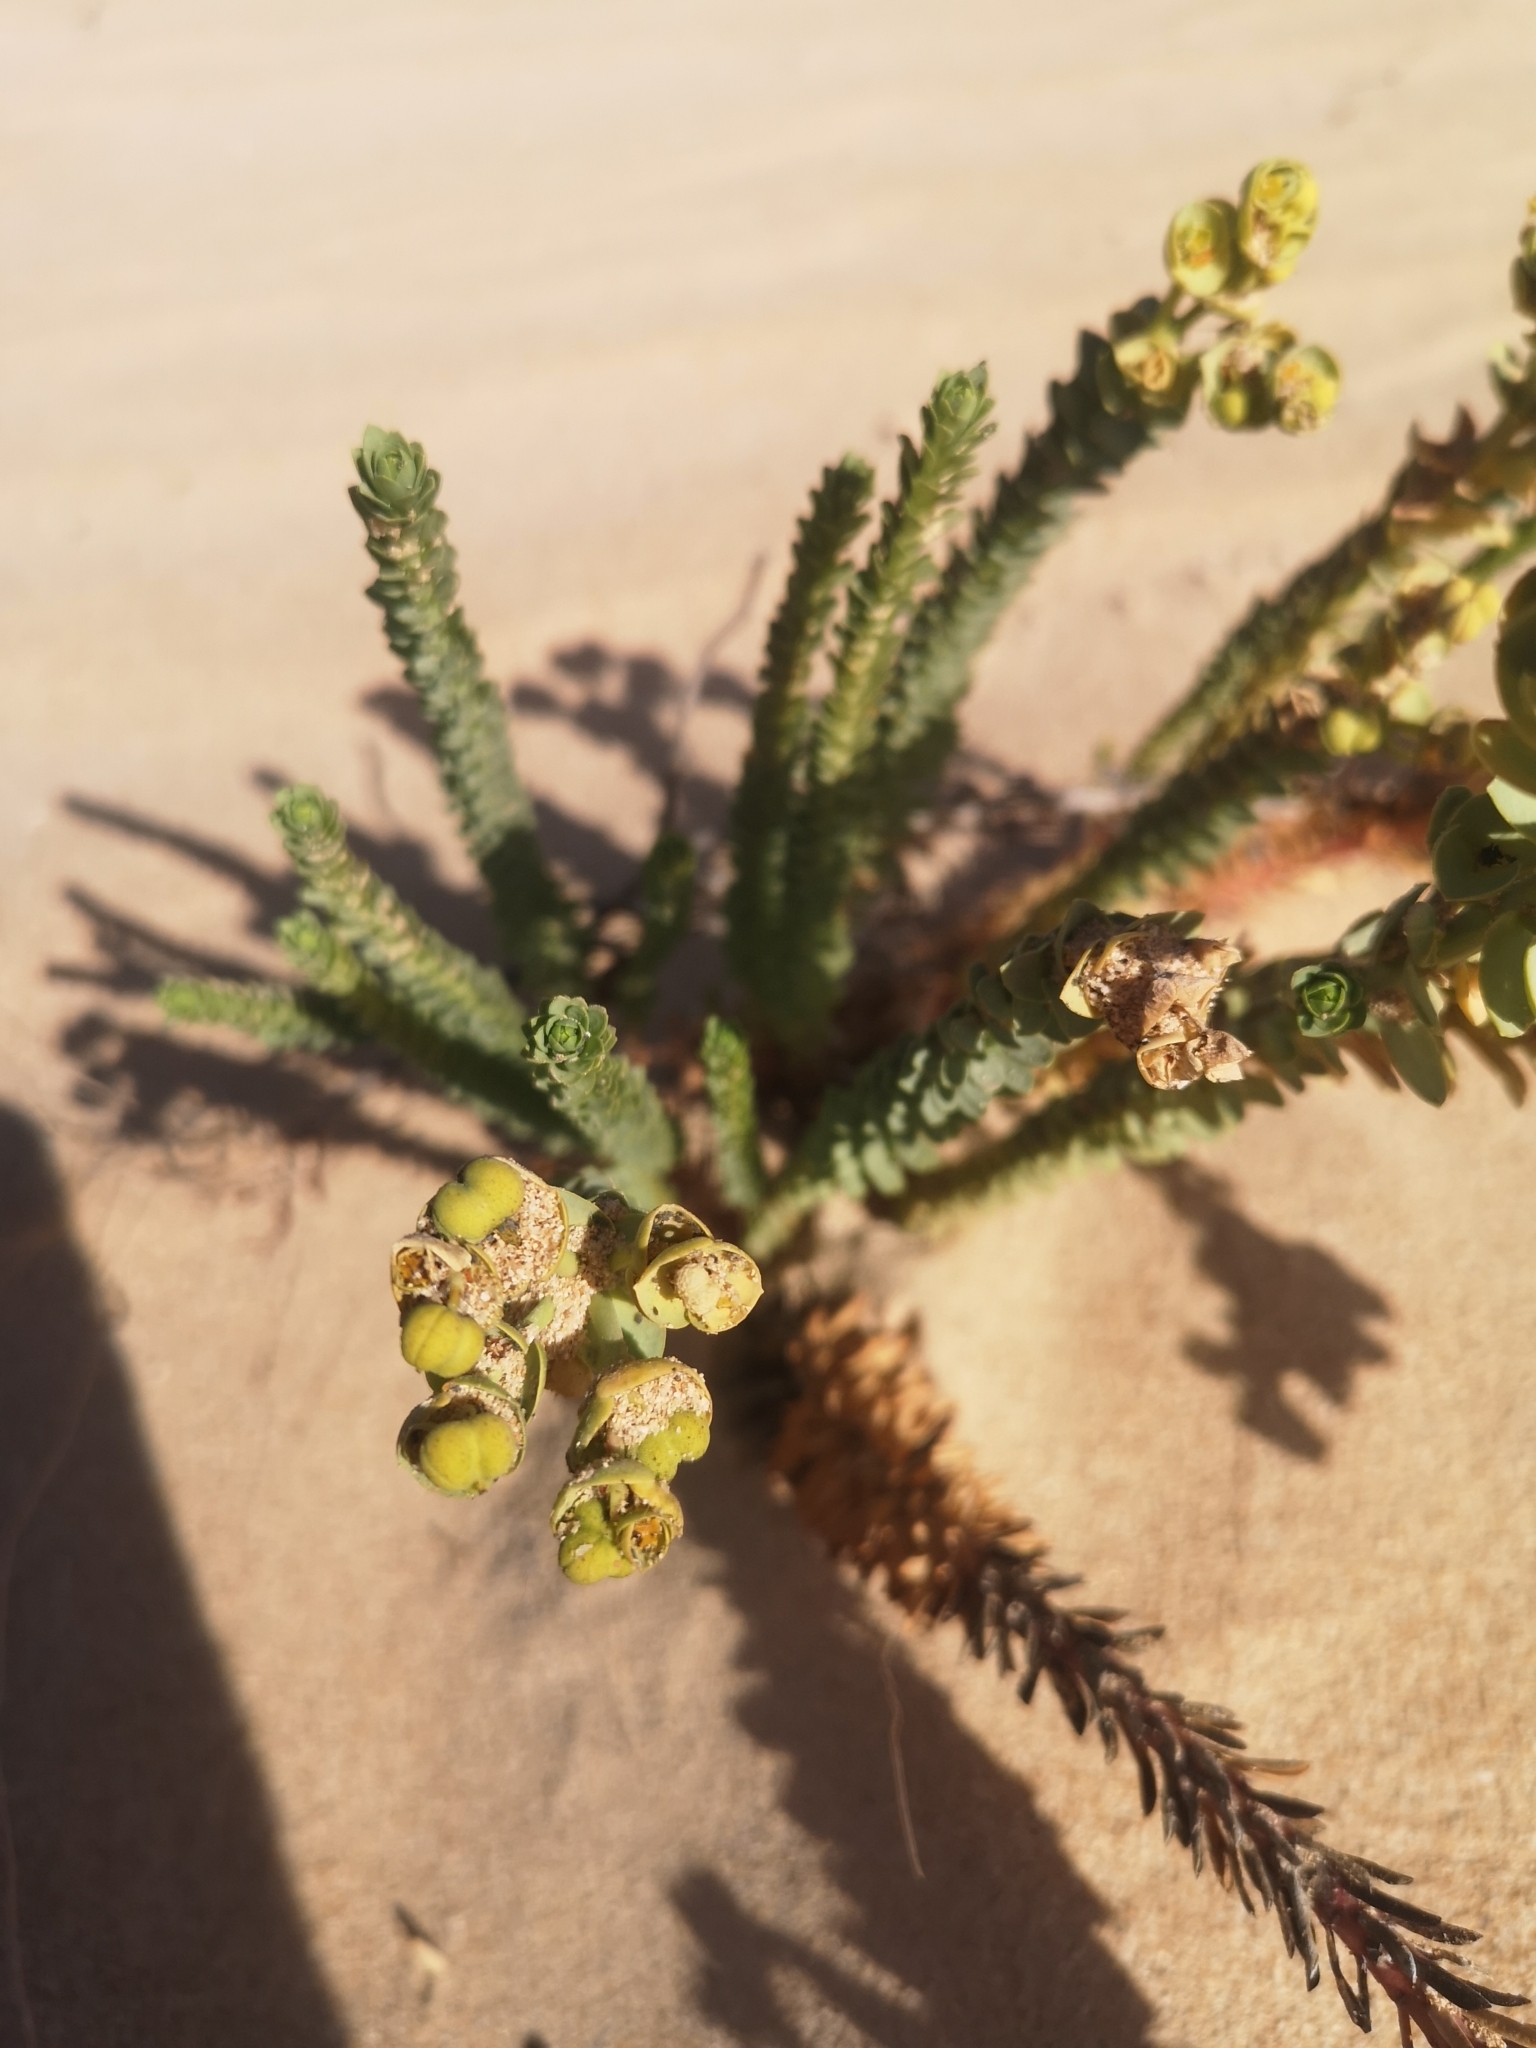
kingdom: Plantae
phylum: Tracheophyta
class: Magnoliopsida
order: Malpighiales
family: Euphorbiaceae
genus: Euphorbia
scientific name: Euphorbia paralias
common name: Sea spurge
